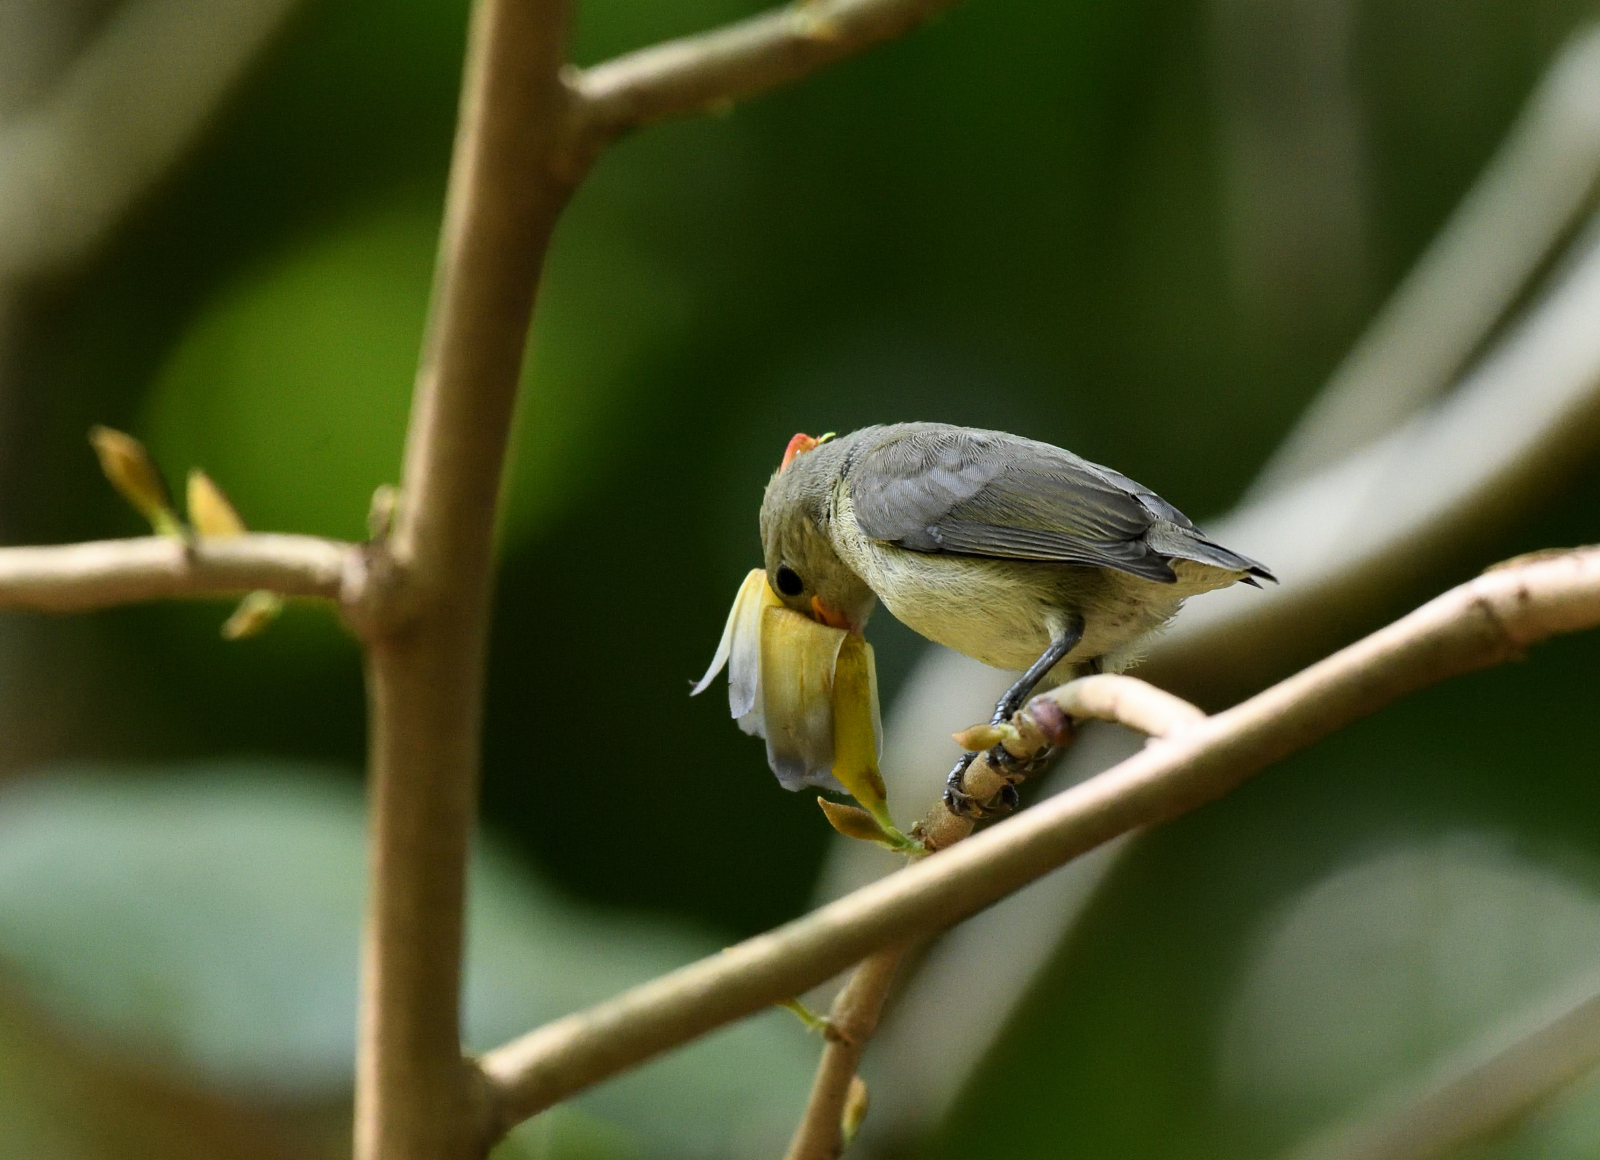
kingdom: Animalia
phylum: Chordata
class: Aves
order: Passeriformes
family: Dicaeidae
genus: Dicaeum
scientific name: Dicaeum erythrorhynchos
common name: Pale-billed flowerpecker
